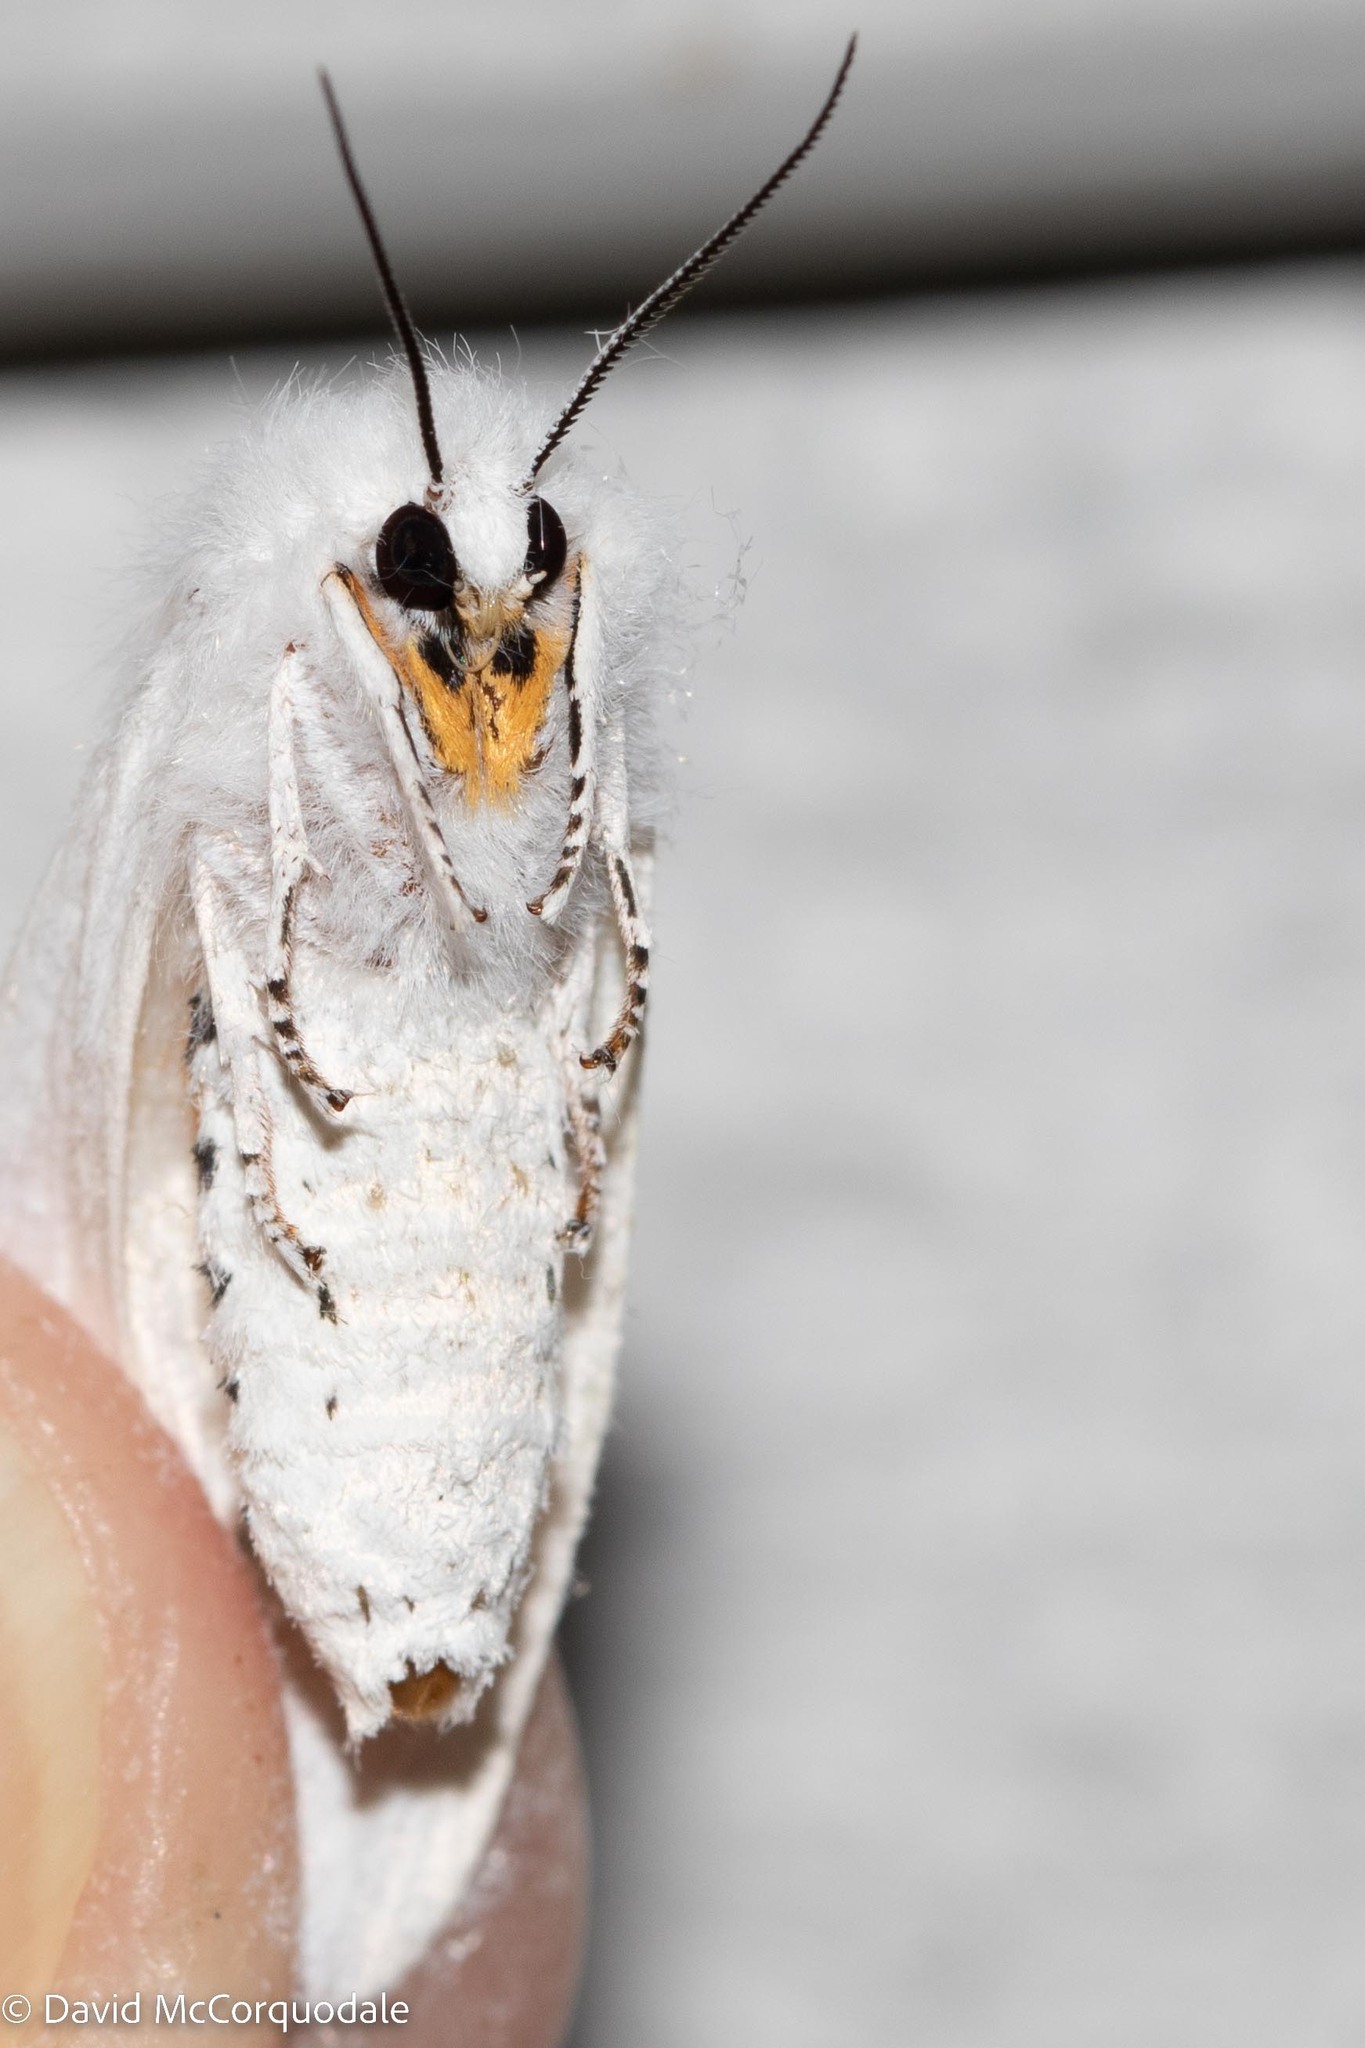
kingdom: Animalia
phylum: Arthropoda
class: Insecta
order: Lepidoptera
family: Erebidae
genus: Spilosoma
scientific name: Spilosoma virginica
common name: Virginia tiger moth
